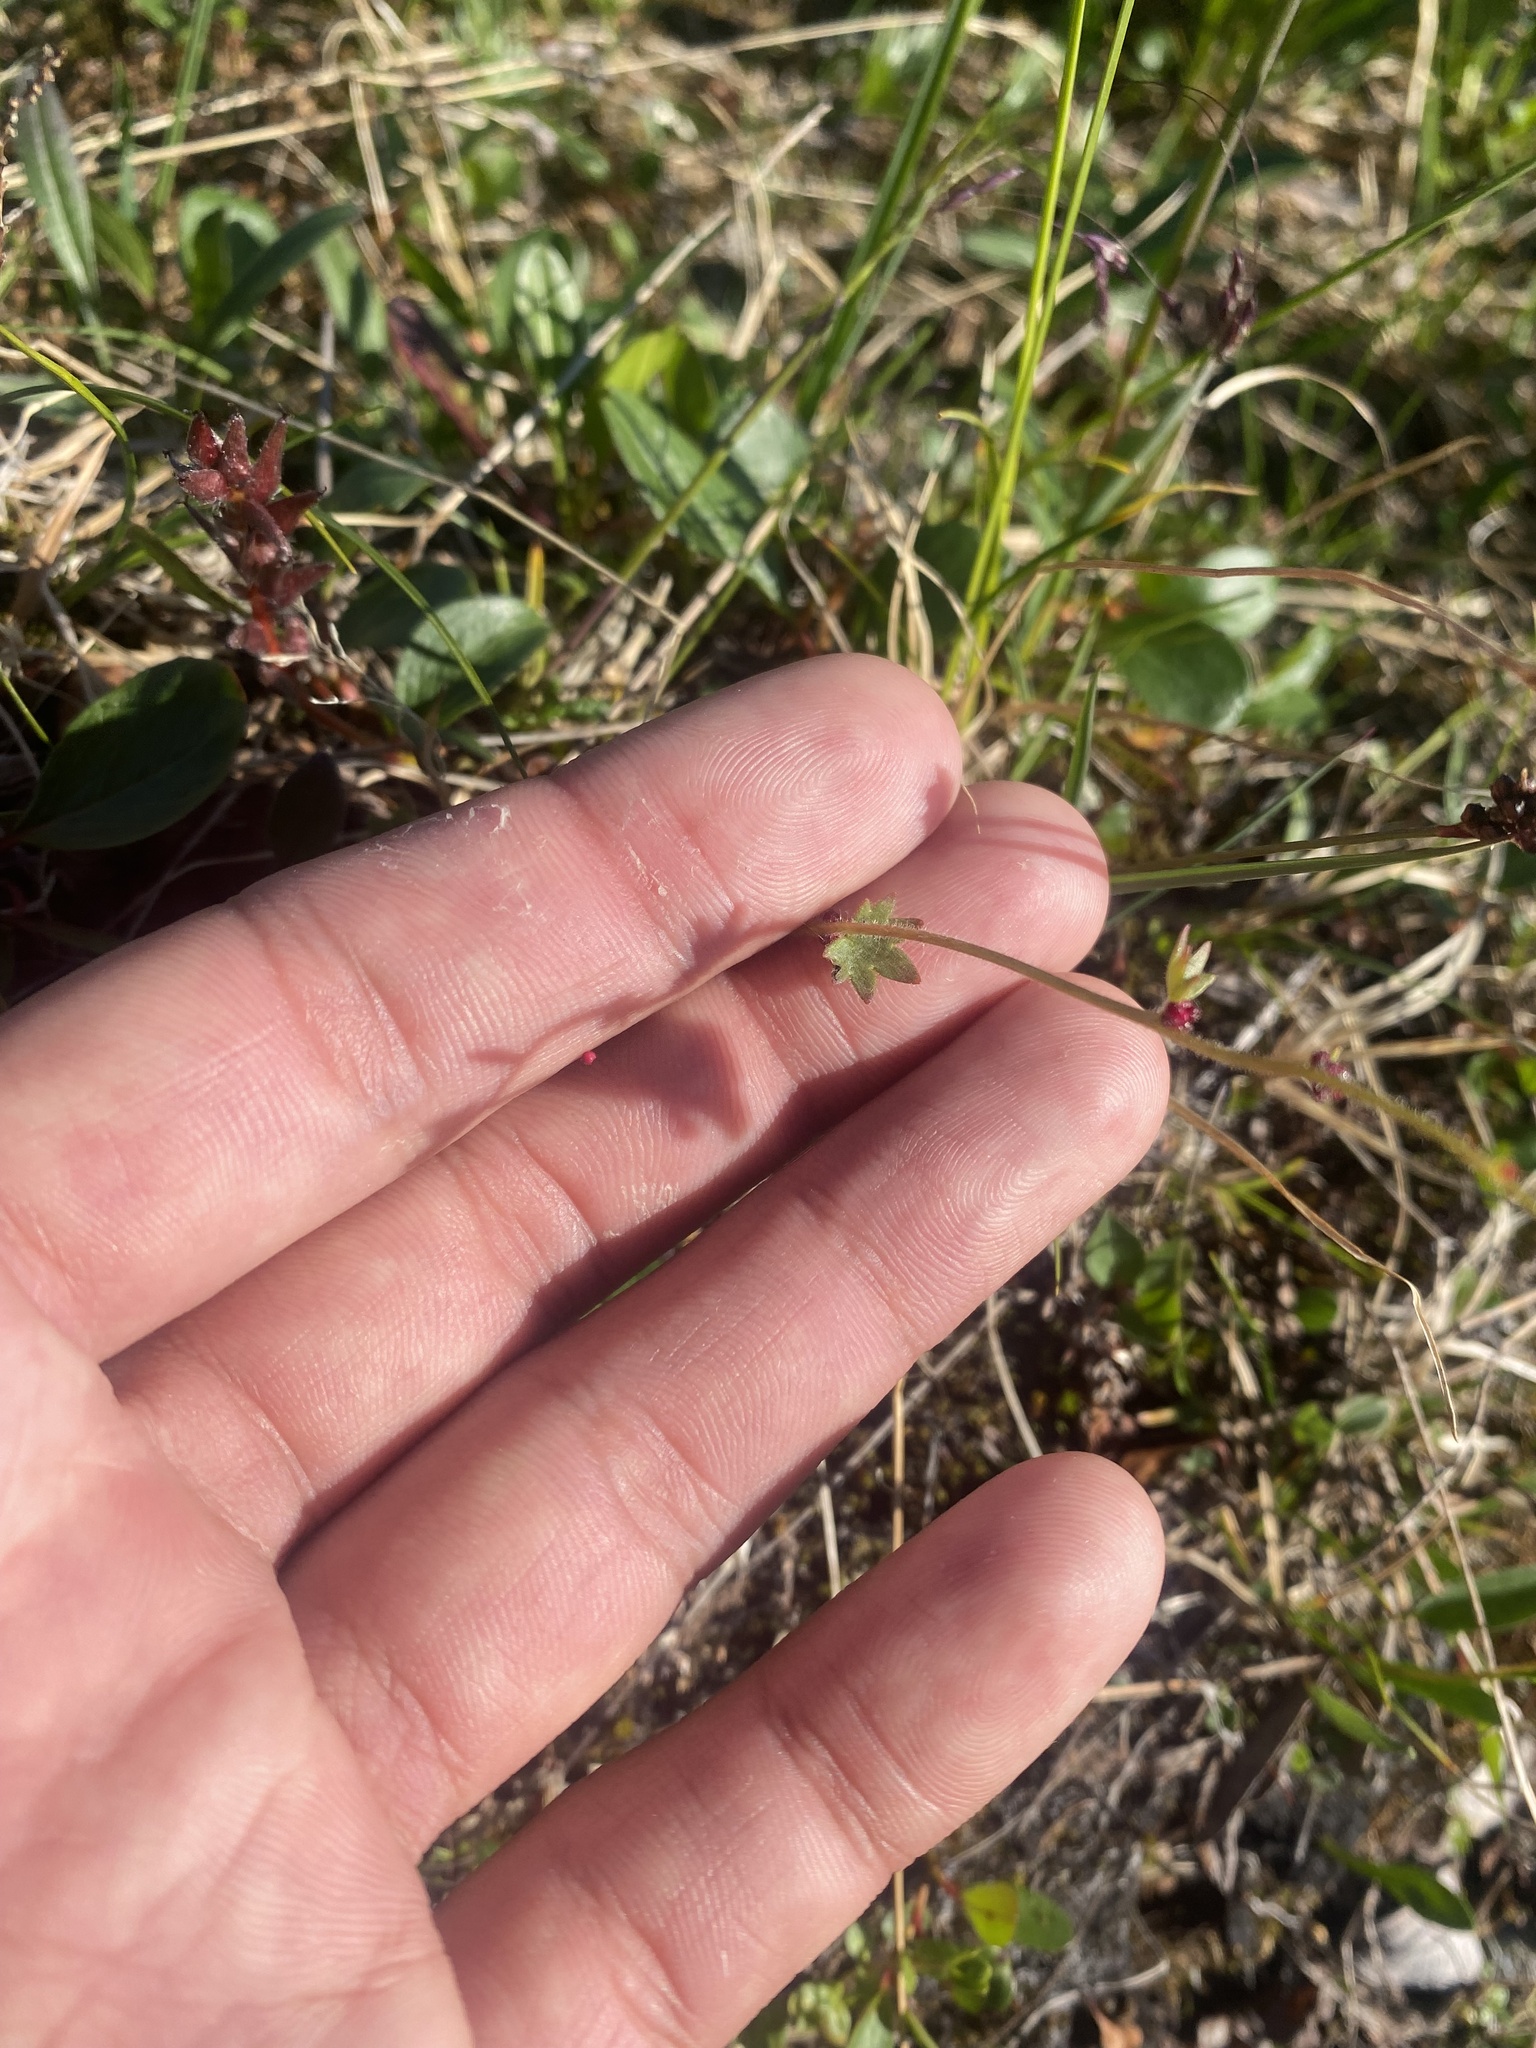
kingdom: Plantae
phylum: Tracheophyta
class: Magnoliopsida
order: Saxifragales
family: Saxifragaceae
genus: Saxifraga
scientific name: Saxifraga cernua
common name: Drooping saxifrage
